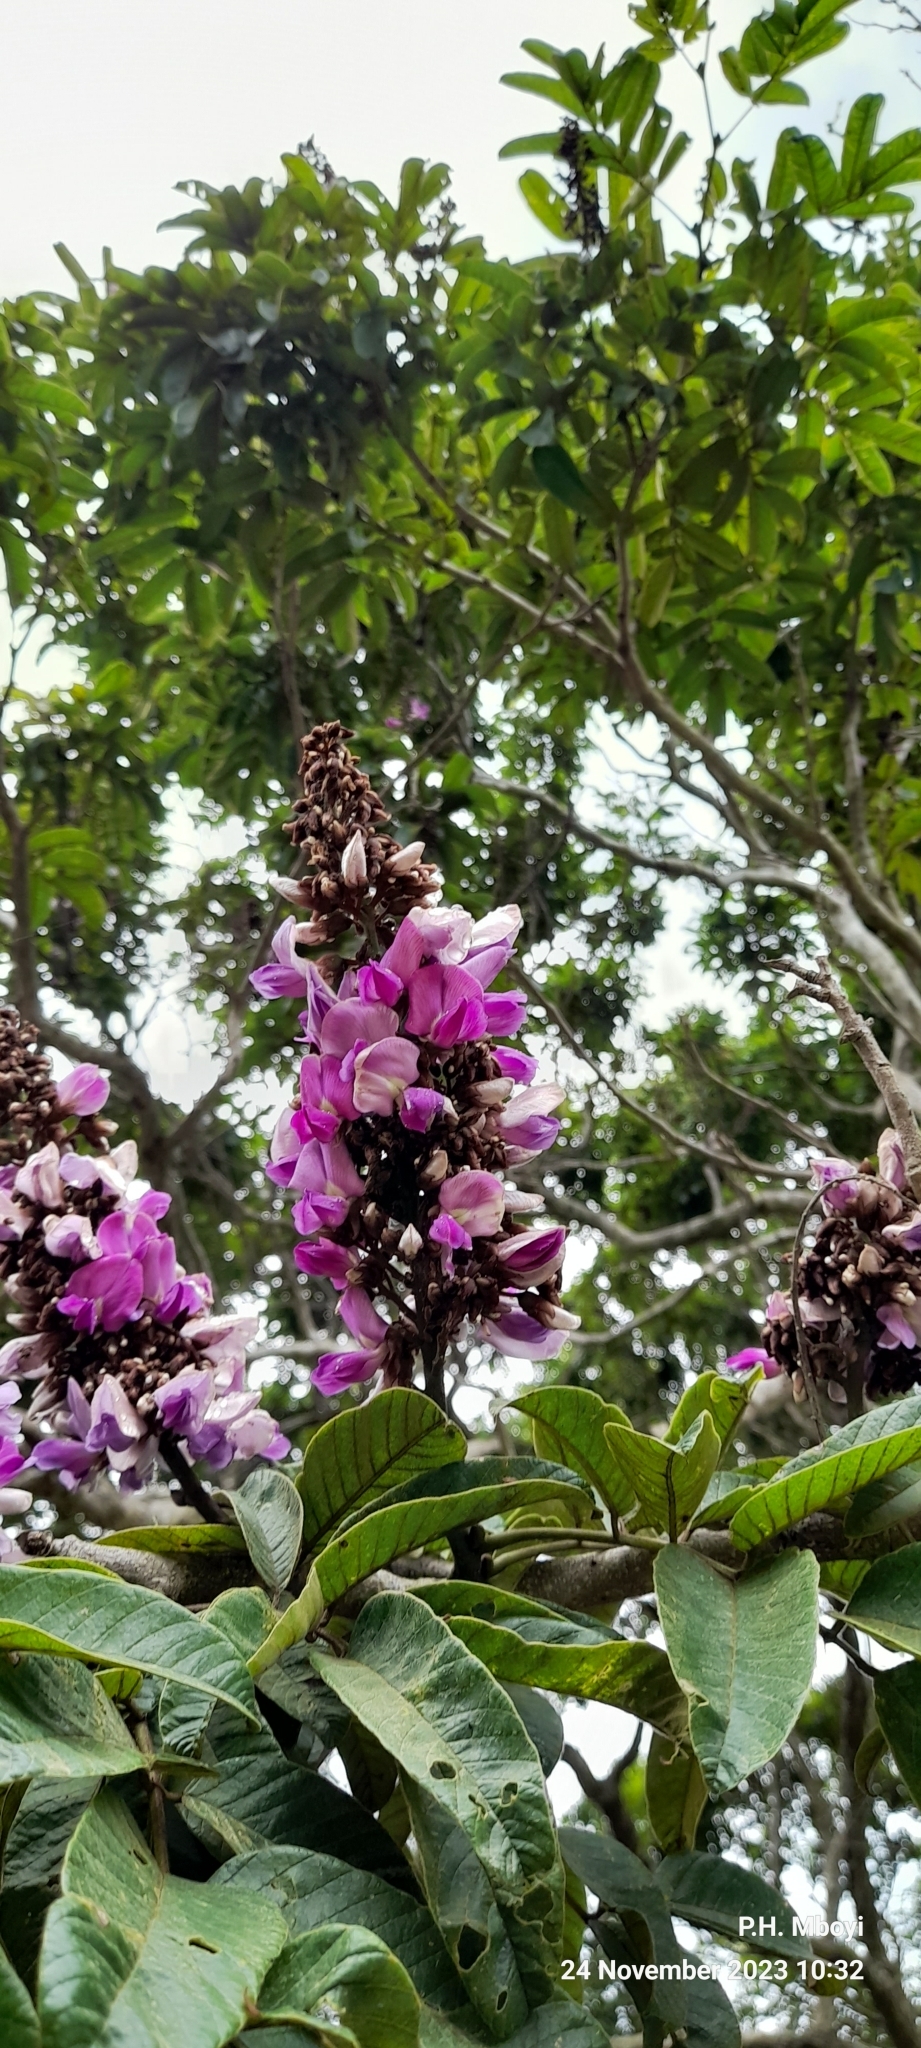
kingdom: Plantae
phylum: Tracheophyta
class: Magnoliopsida
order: Fabales
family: Fabaceae
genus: Millettia
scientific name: Millettia grandis
